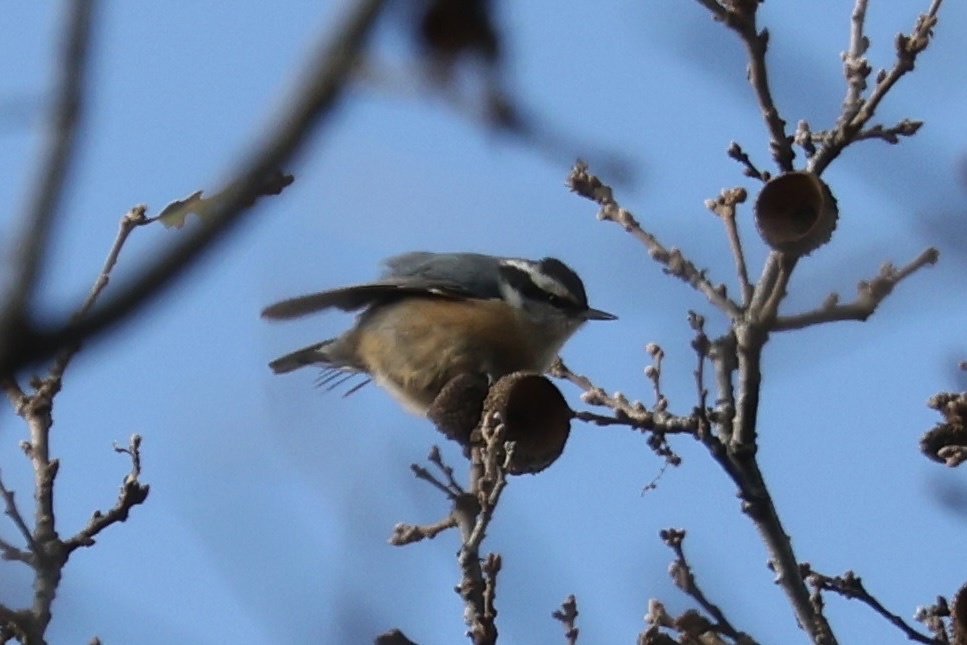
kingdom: Animalia
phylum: Chordata
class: Aves
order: Passeriformes
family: Sittidae
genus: Sitta
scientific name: Sitta canadensis
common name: Red-breasted nuthatch
